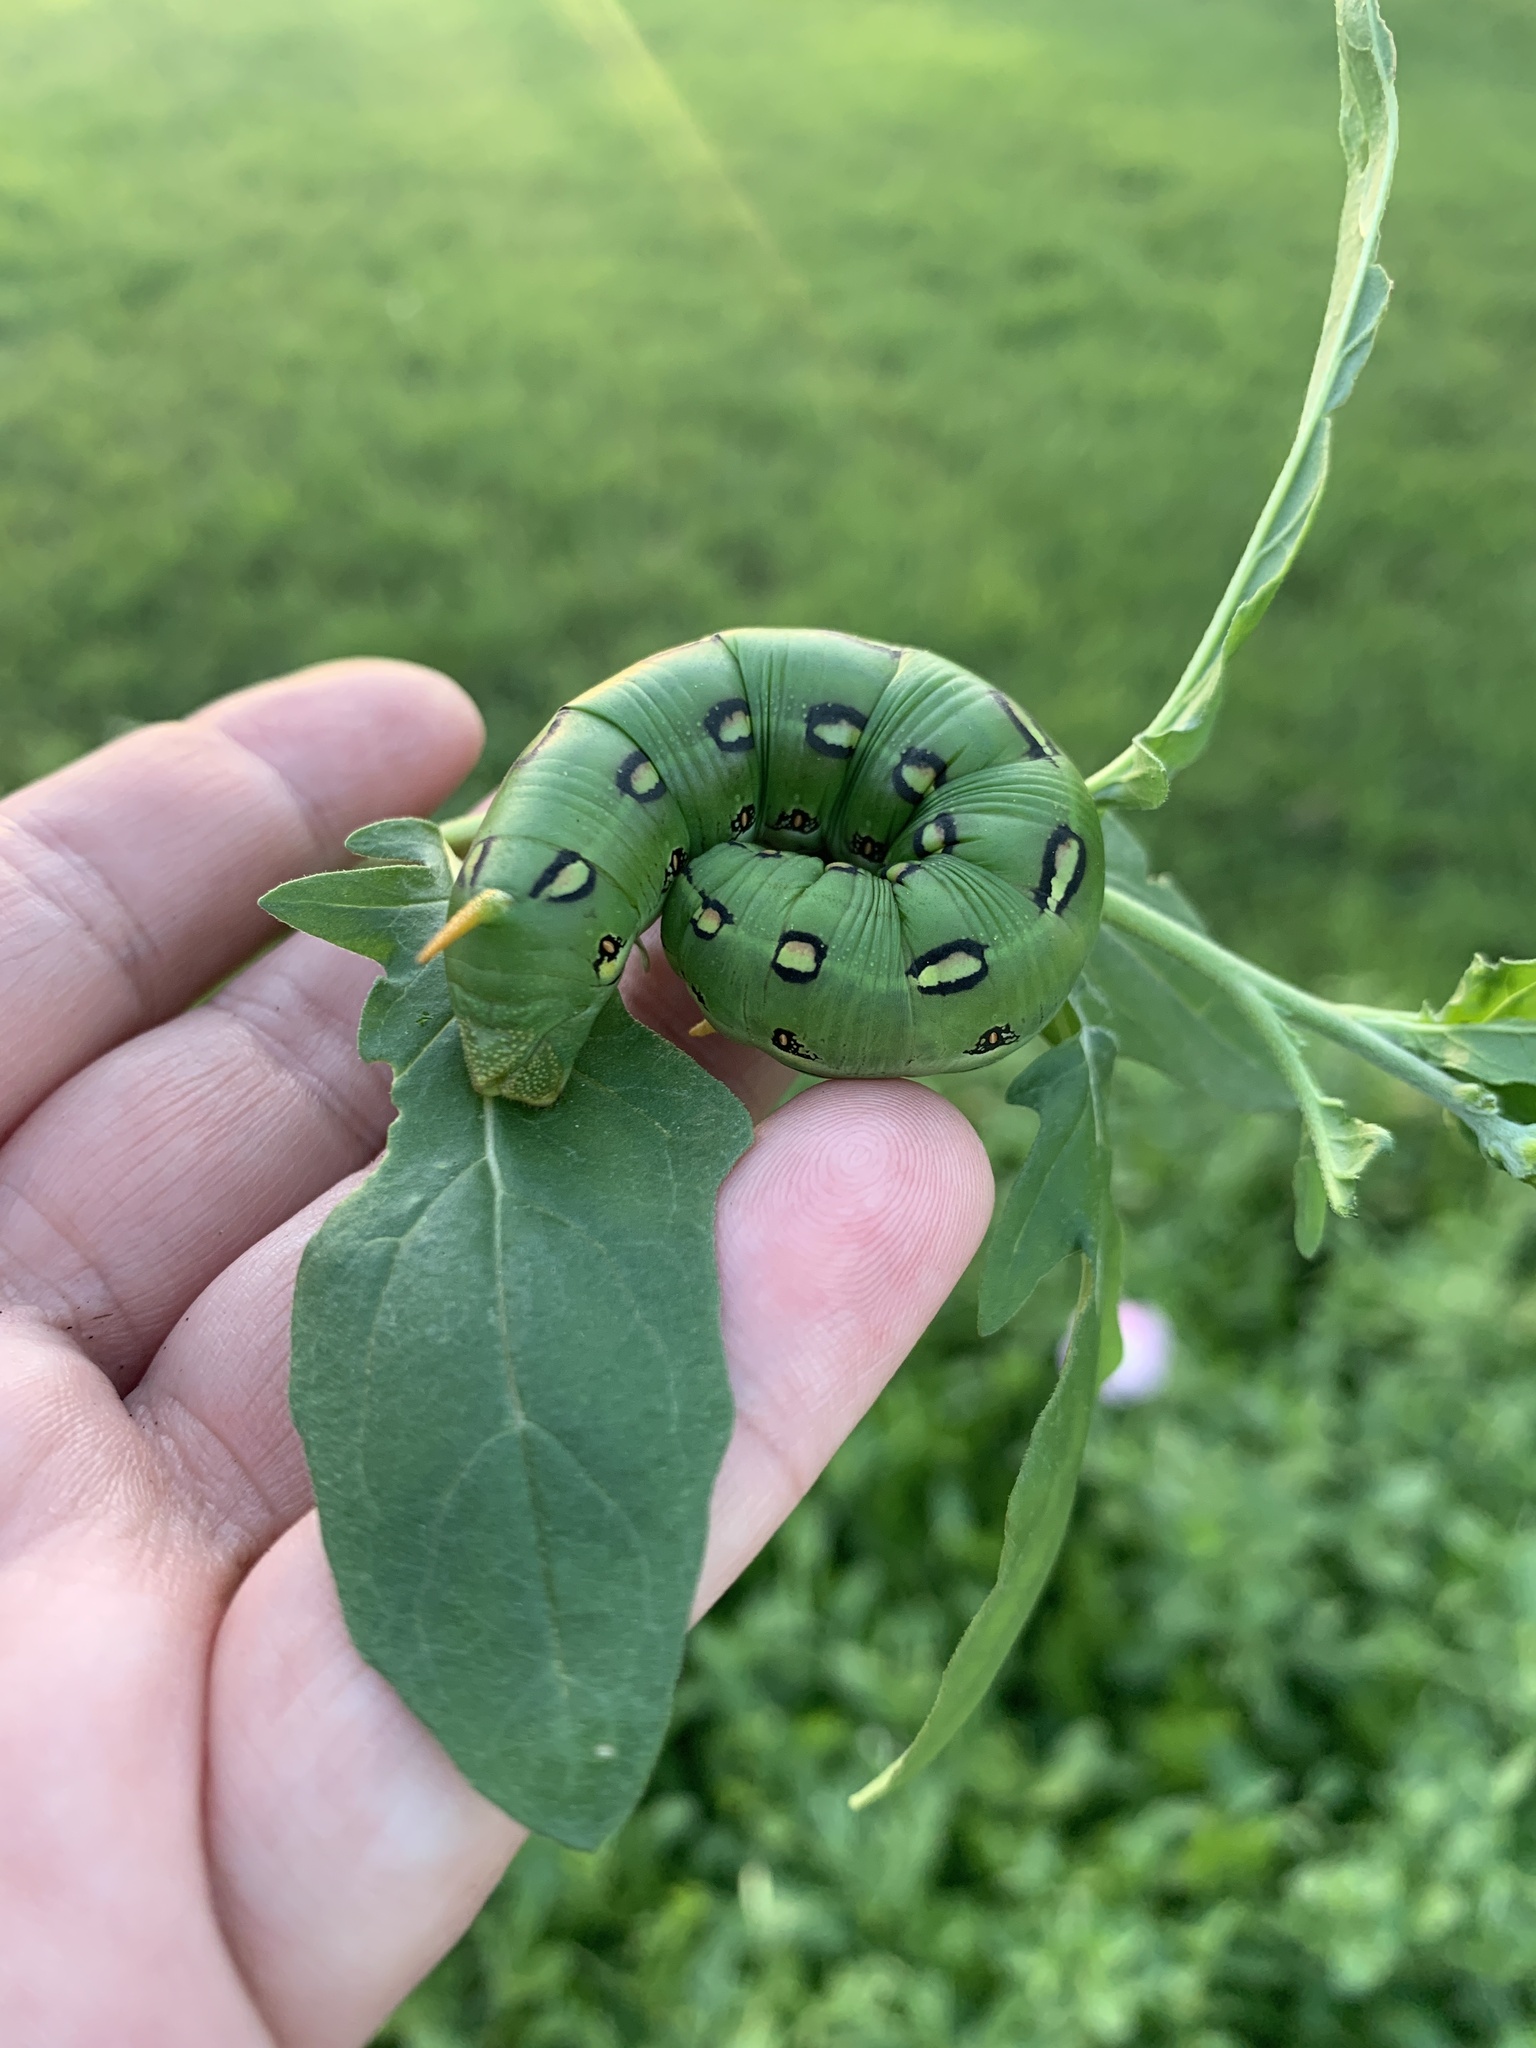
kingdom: Animalia
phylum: Arthropoda
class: Insecta
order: Lepidoptera
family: Sphingidae
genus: Hyles
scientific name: Hyles lineata
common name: White-lined sphinx
